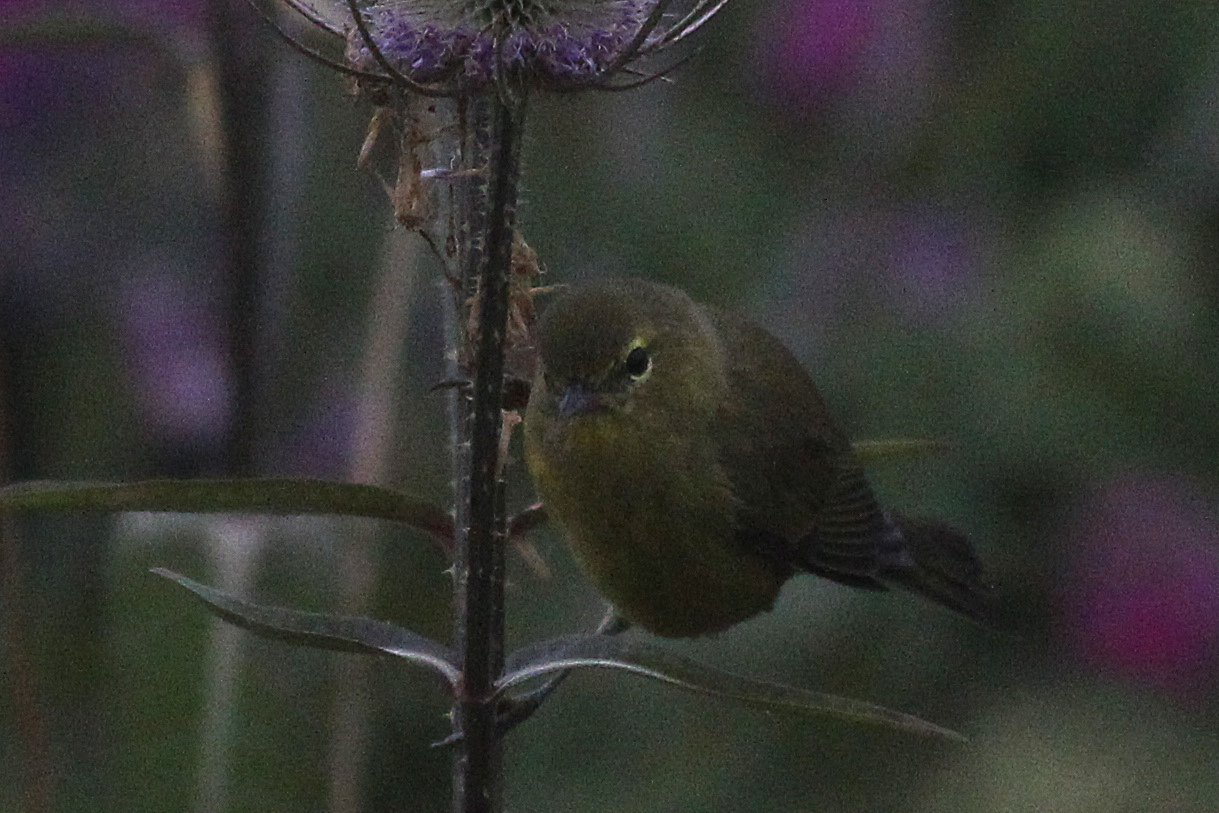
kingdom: Animalia
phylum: Chordata
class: Aves
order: Passeriformes
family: Parulidae
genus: Leiothlypis
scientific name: Leiothlypis celata
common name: Orange-crowned warbler
